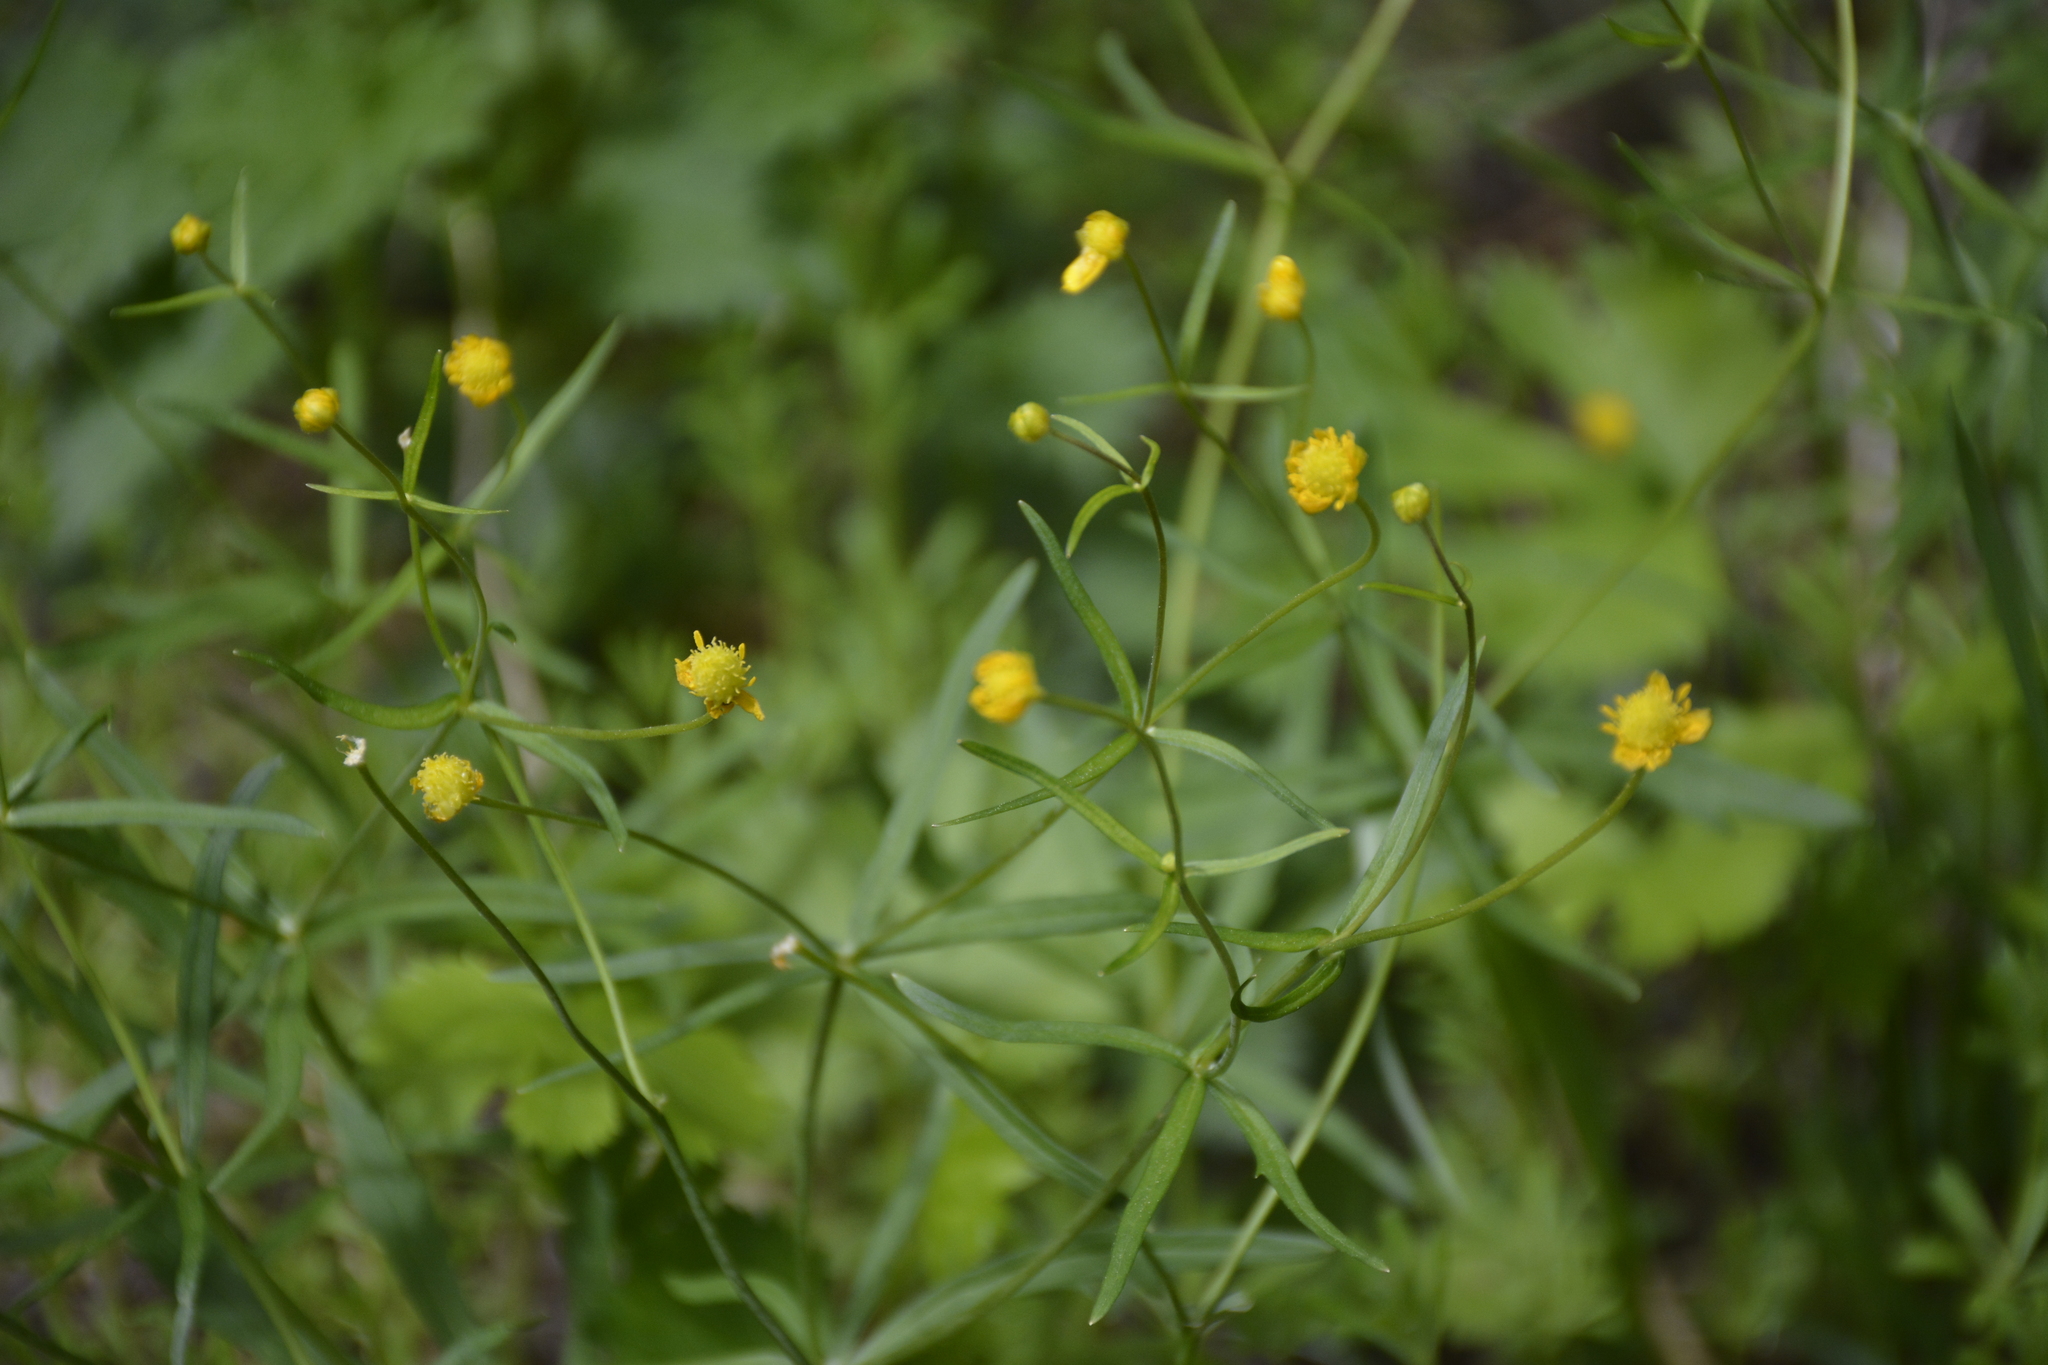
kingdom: Plantae
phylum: Tracheophyta
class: Magnoliopsida
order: Ranunculales
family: Ranunculaceae
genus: Ranunculus
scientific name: Ranunculus auricomus
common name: Goldilocks buttercup
